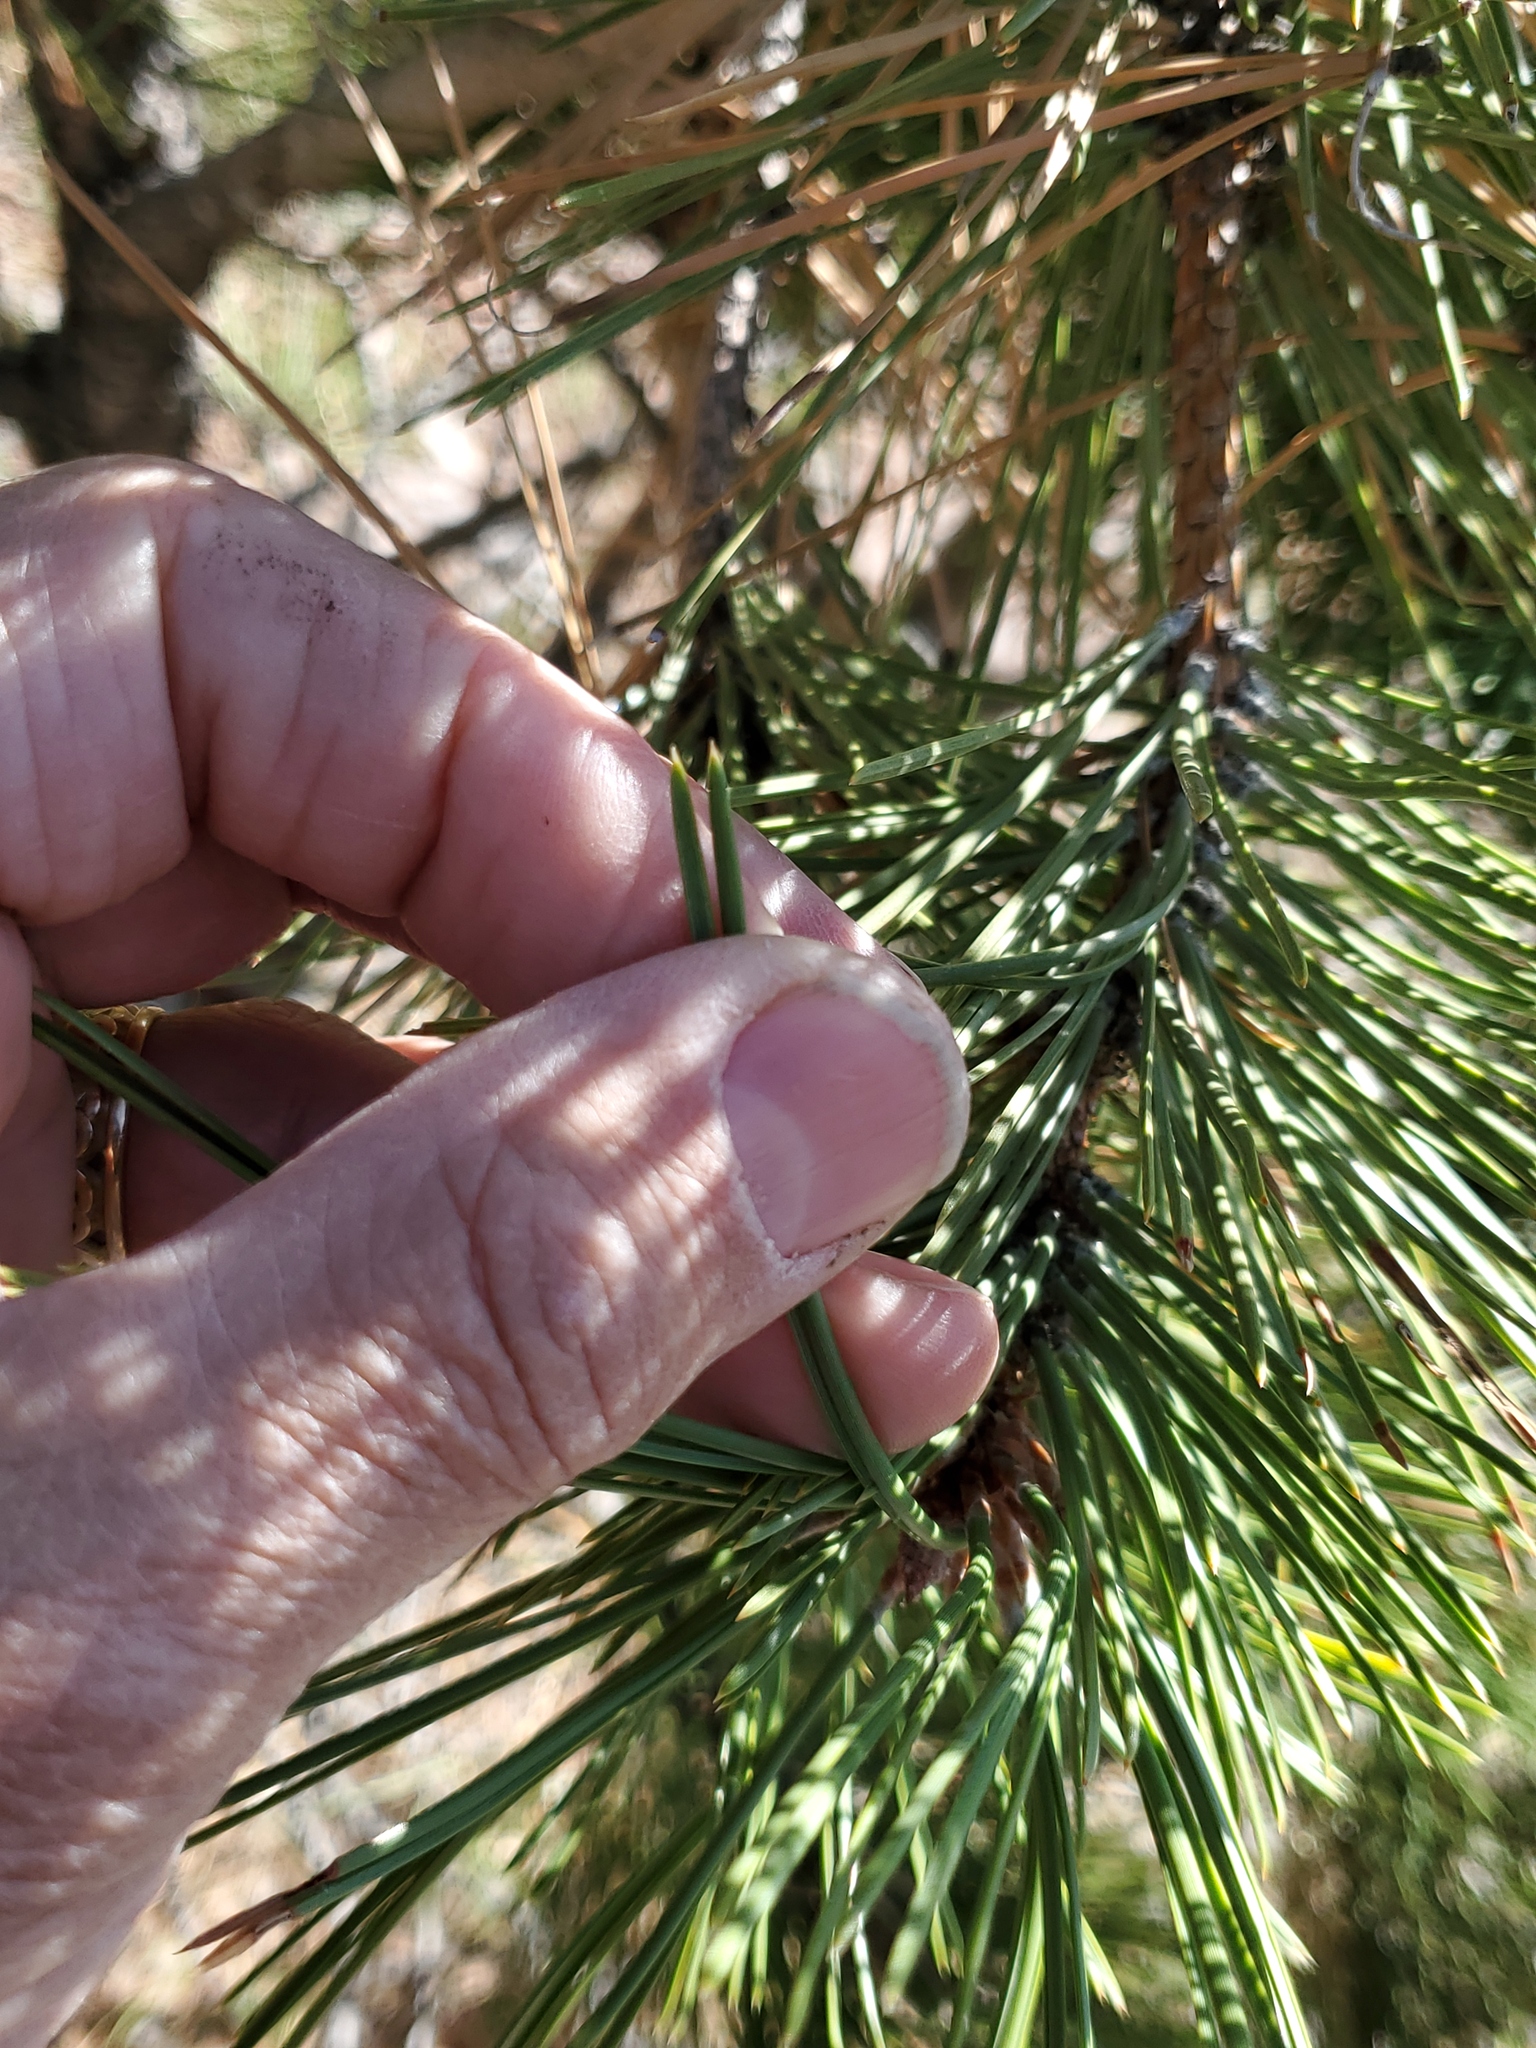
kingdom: Plantae
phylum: Tracheophyta
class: Pinopsida
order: Pinales
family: Pinaceae
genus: Pinus
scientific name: Pinus ponderosa
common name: Western yellow-pine
